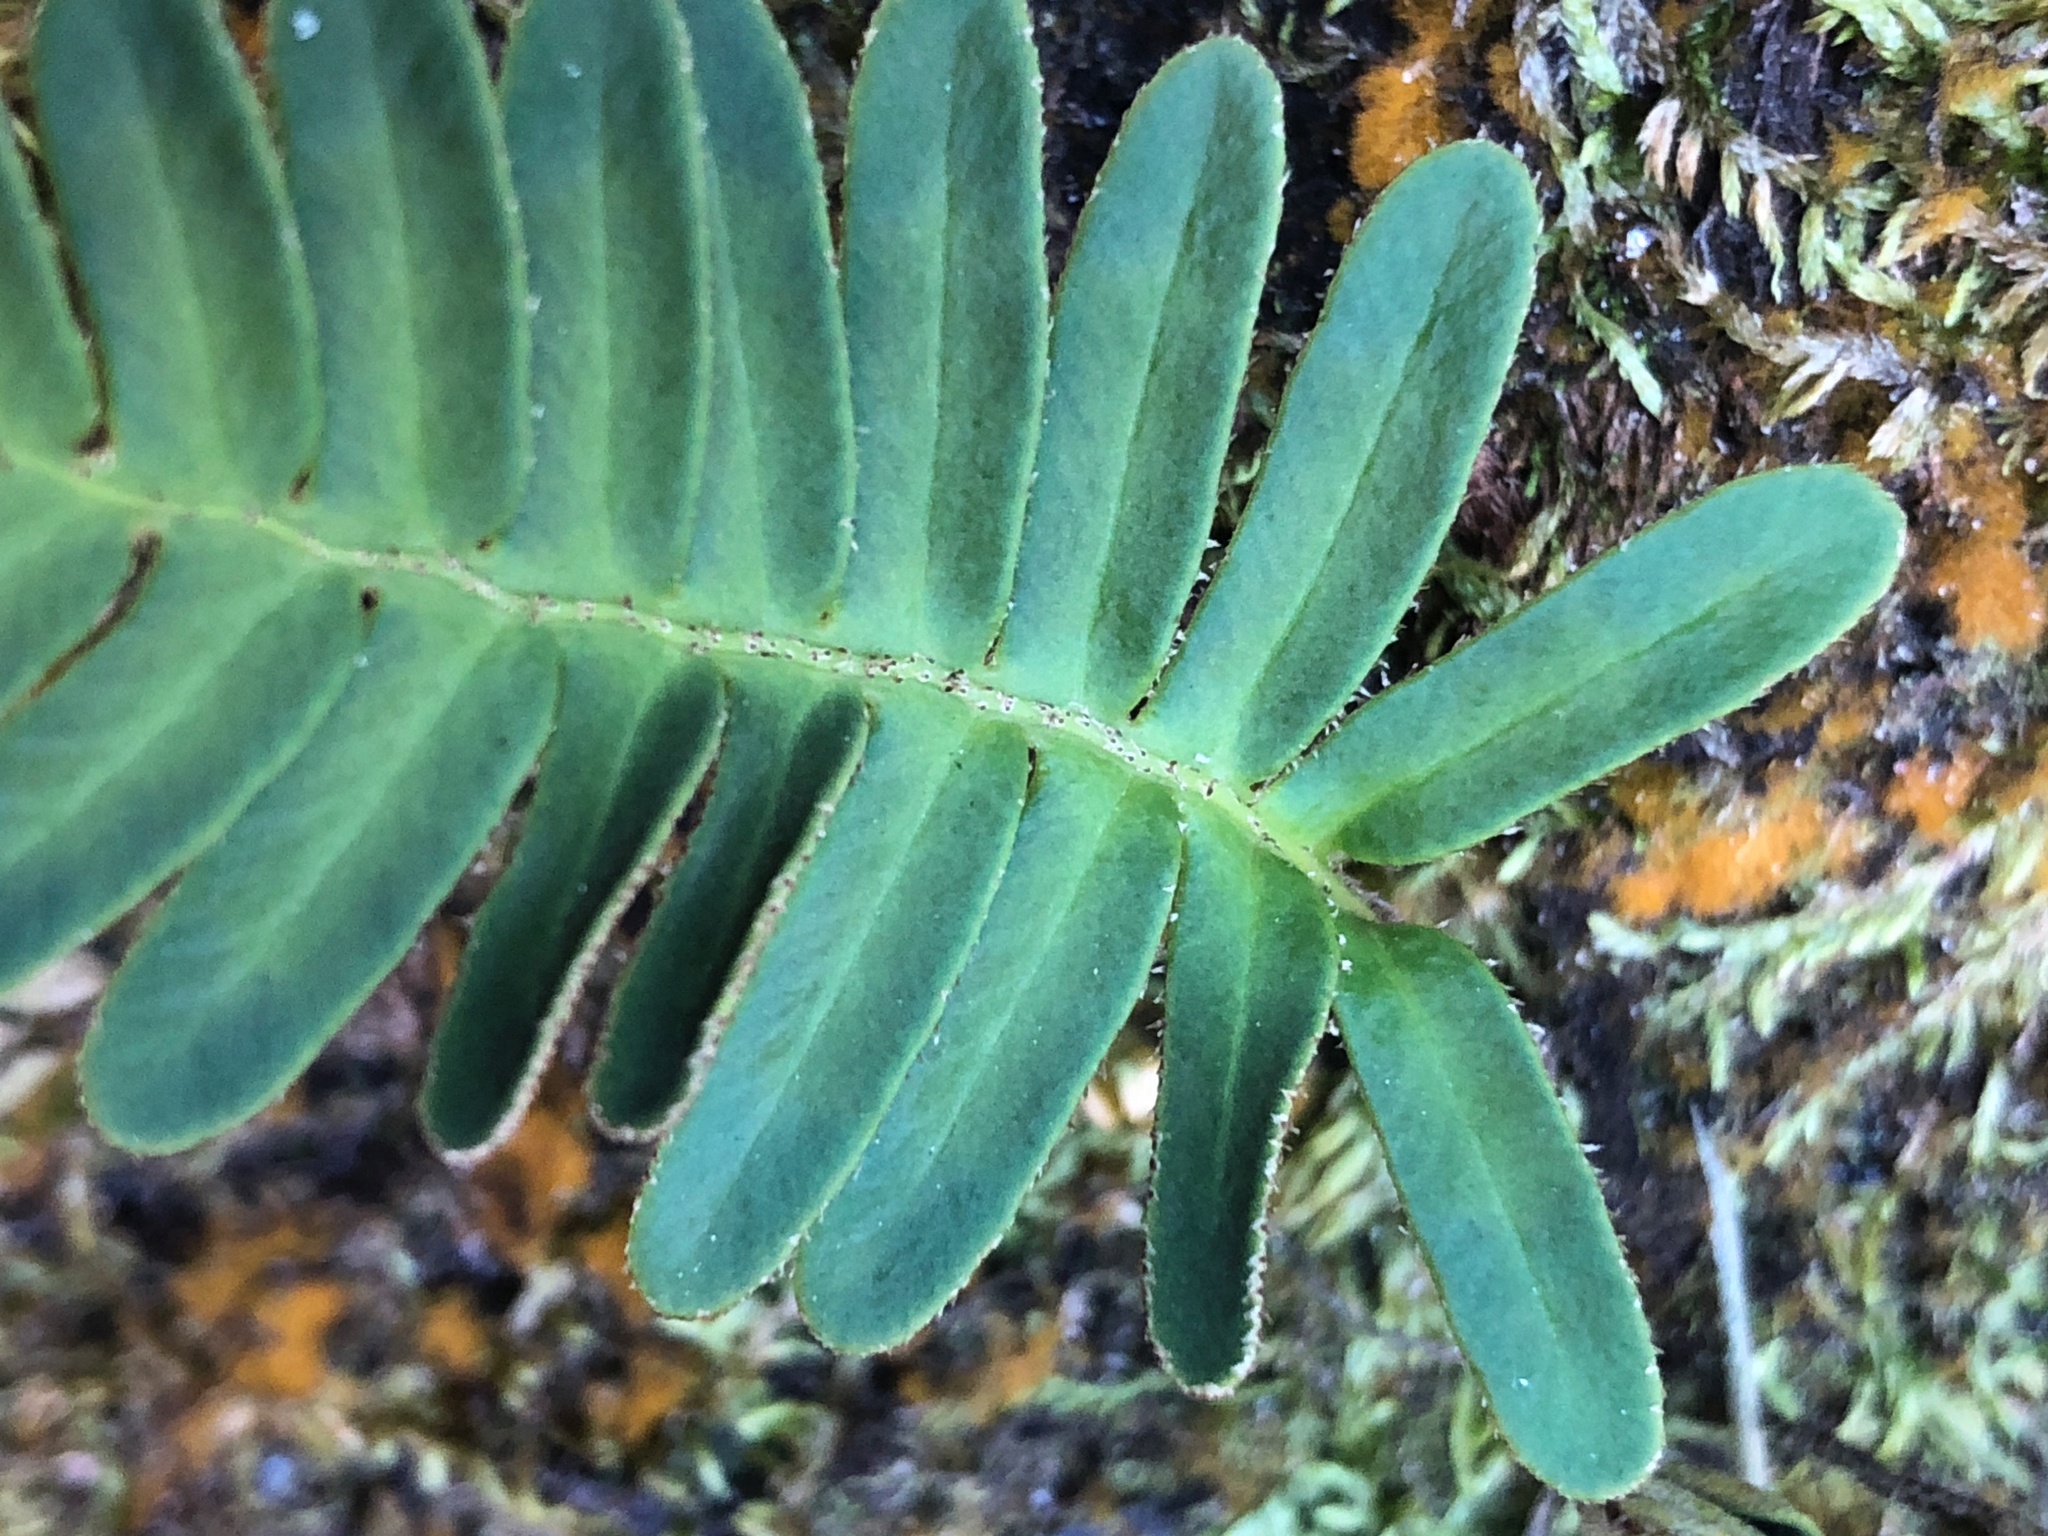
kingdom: Plantae
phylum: Tracheophyta
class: Polypodiopsida
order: Polypodiales
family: Polypodiaceae
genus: Pleopeltis
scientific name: Pleopeltis michauxiana
